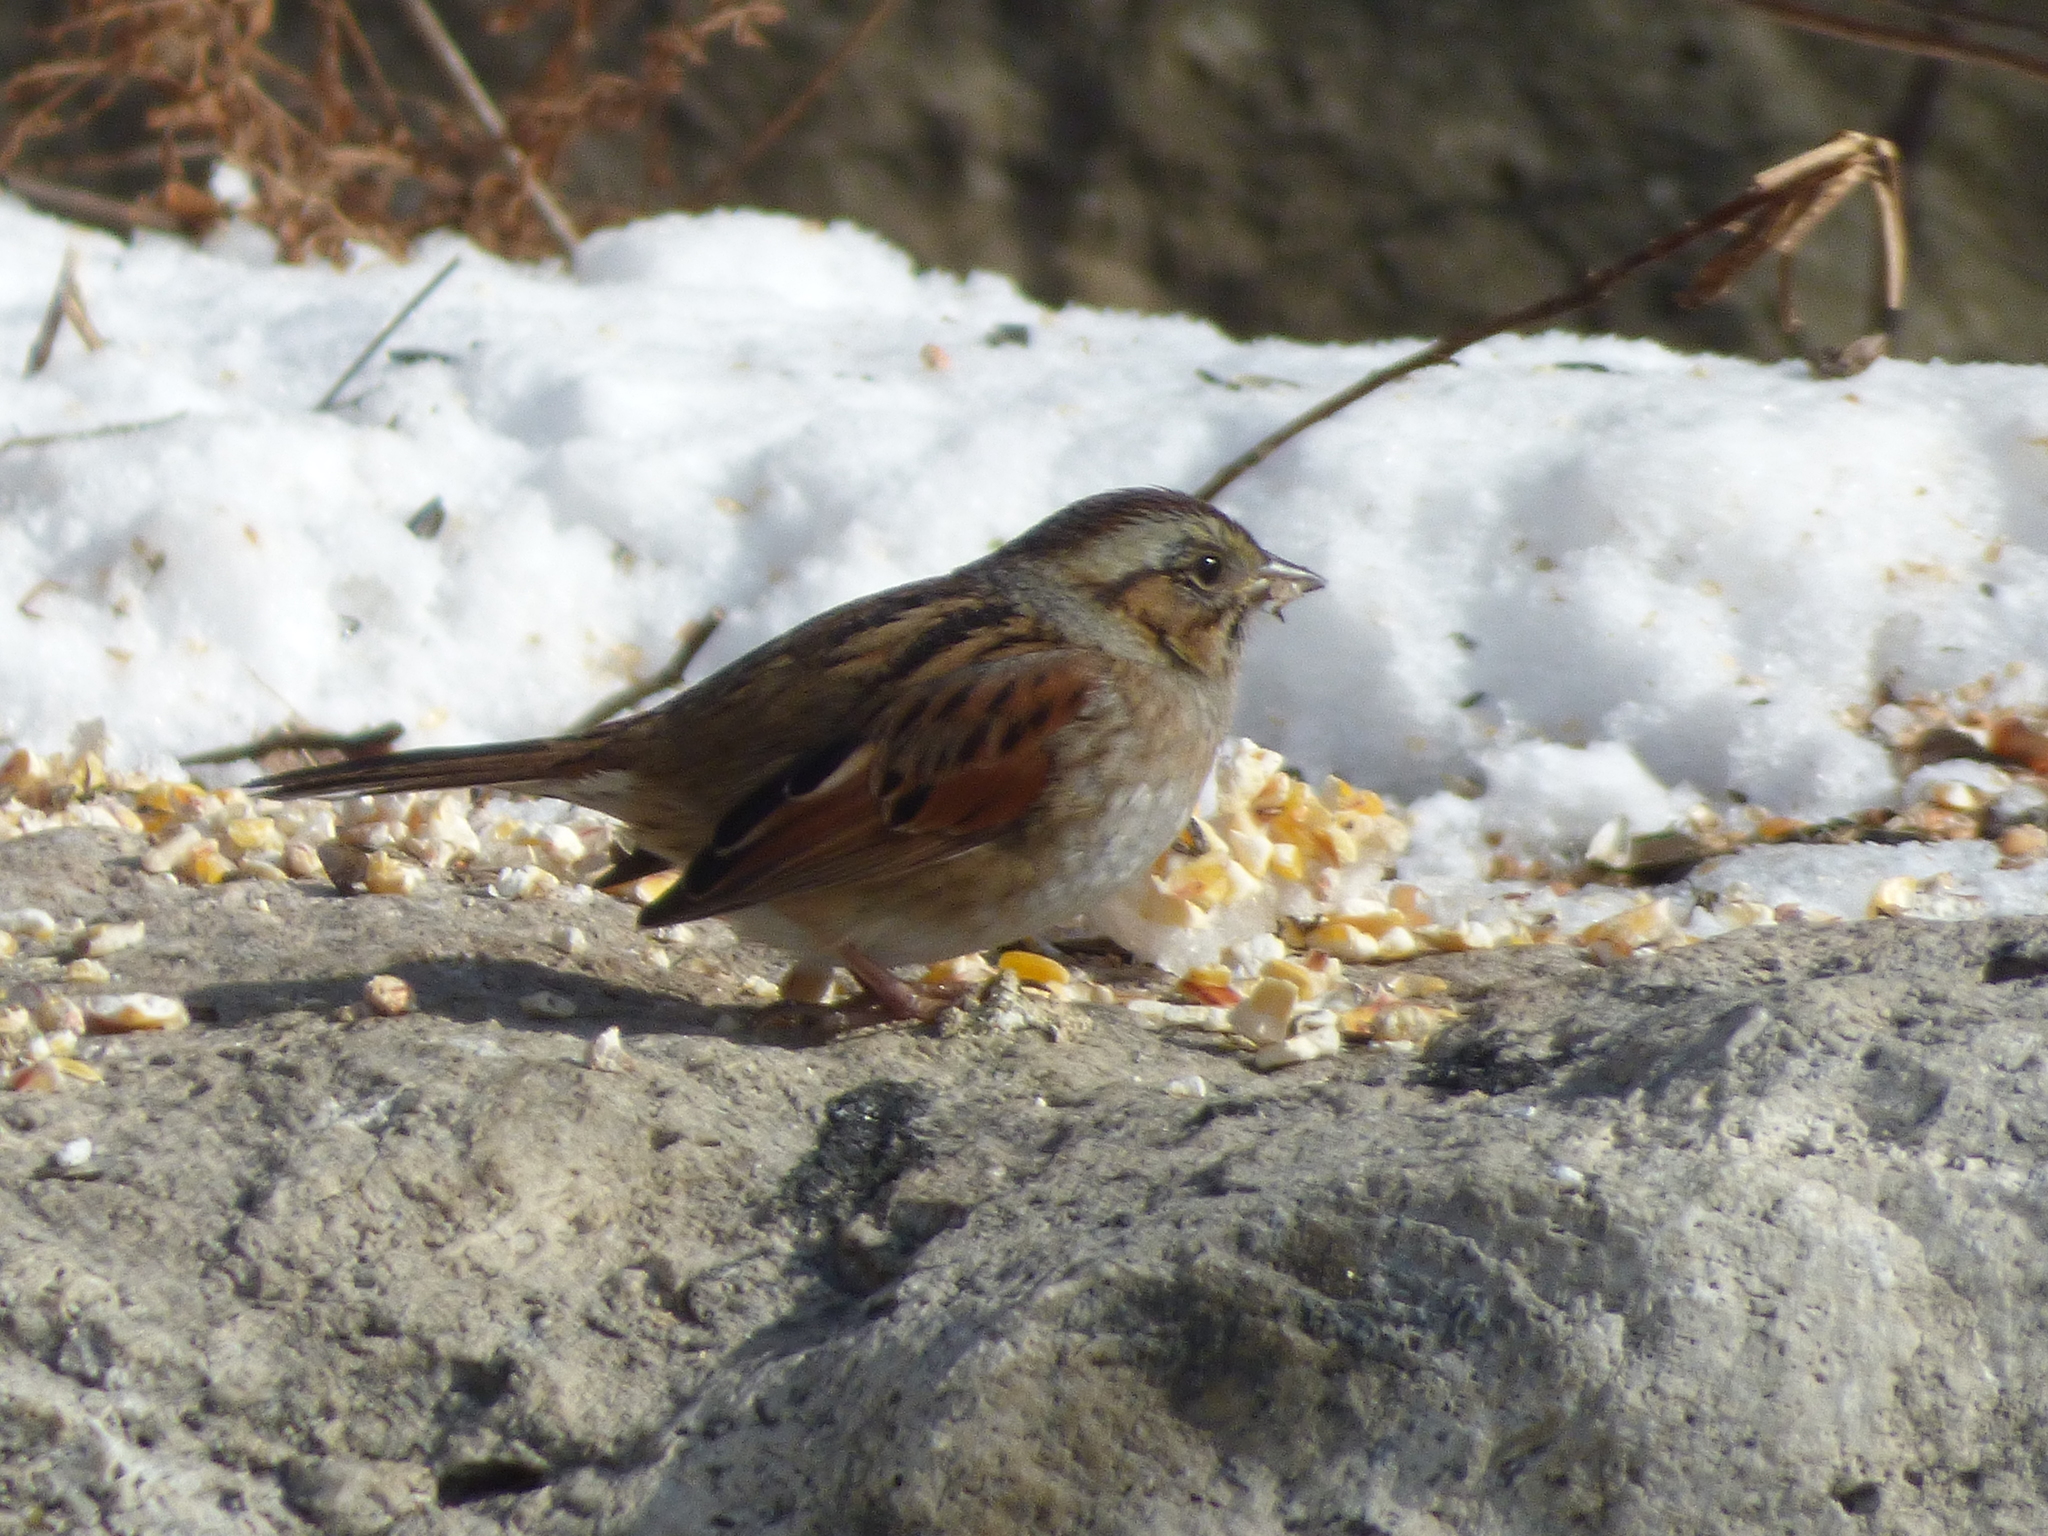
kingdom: Animalia
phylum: Chordata
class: Aves
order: Passeriformes
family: Passerellidae
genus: Melospiza
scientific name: Melospiza georgiana
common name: Swamp sparrow
